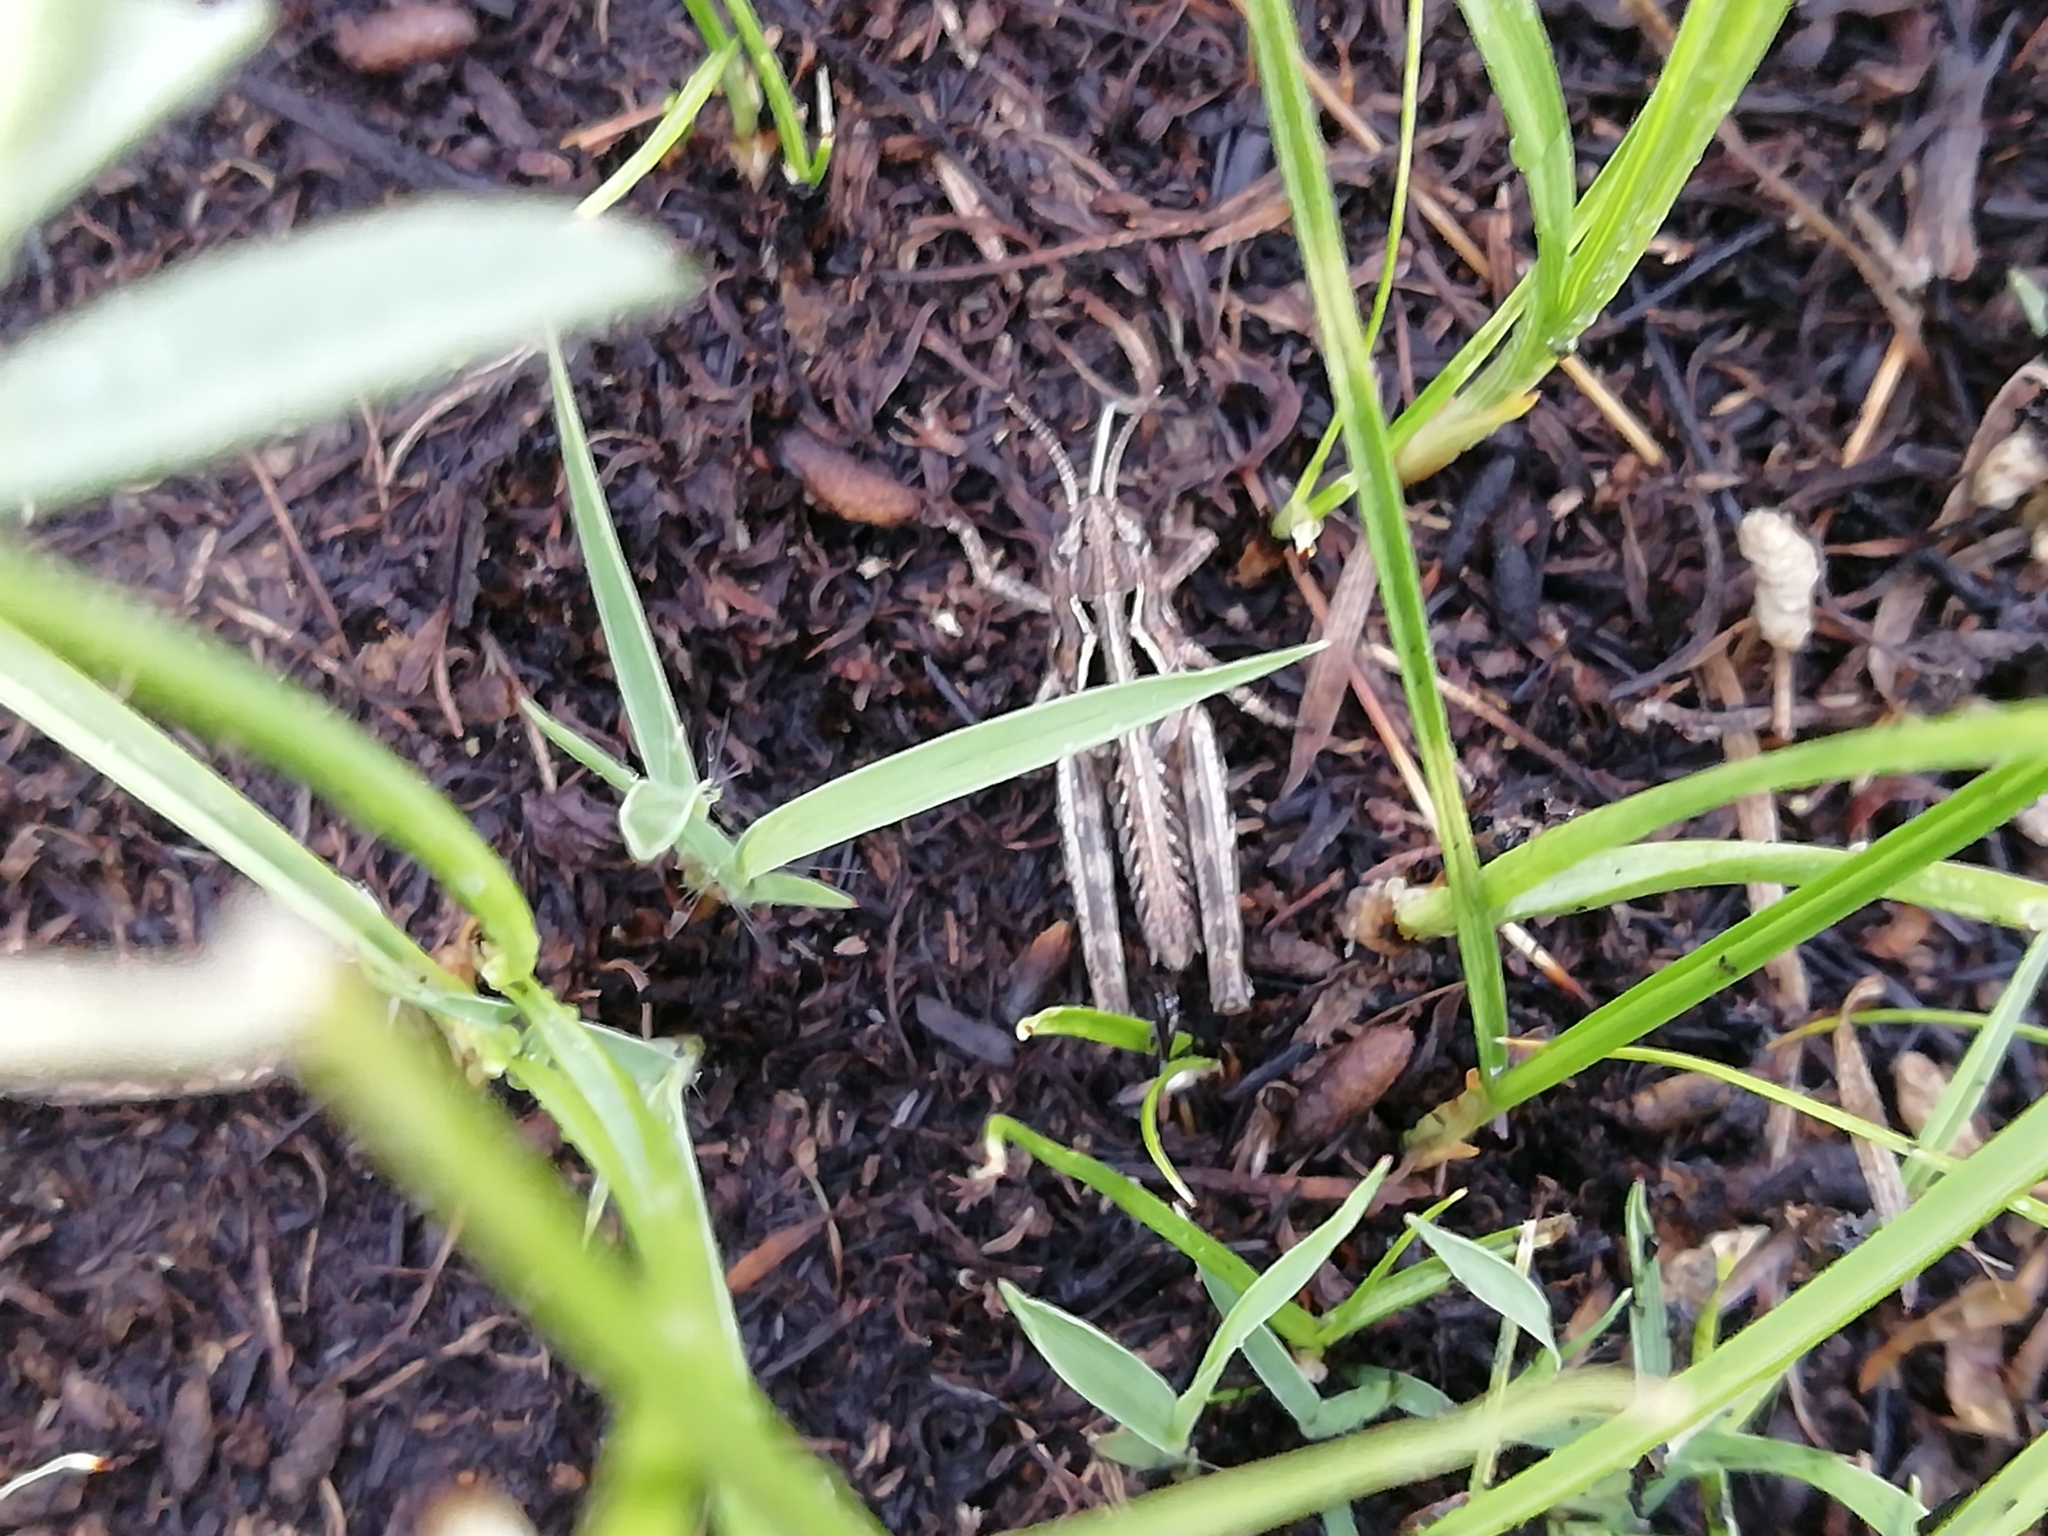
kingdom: Animalia
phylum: Arthropoda
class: Insecta
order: Orthoptera
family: Acrididae
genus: Arcyptera
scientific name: Arcyptera microptera
